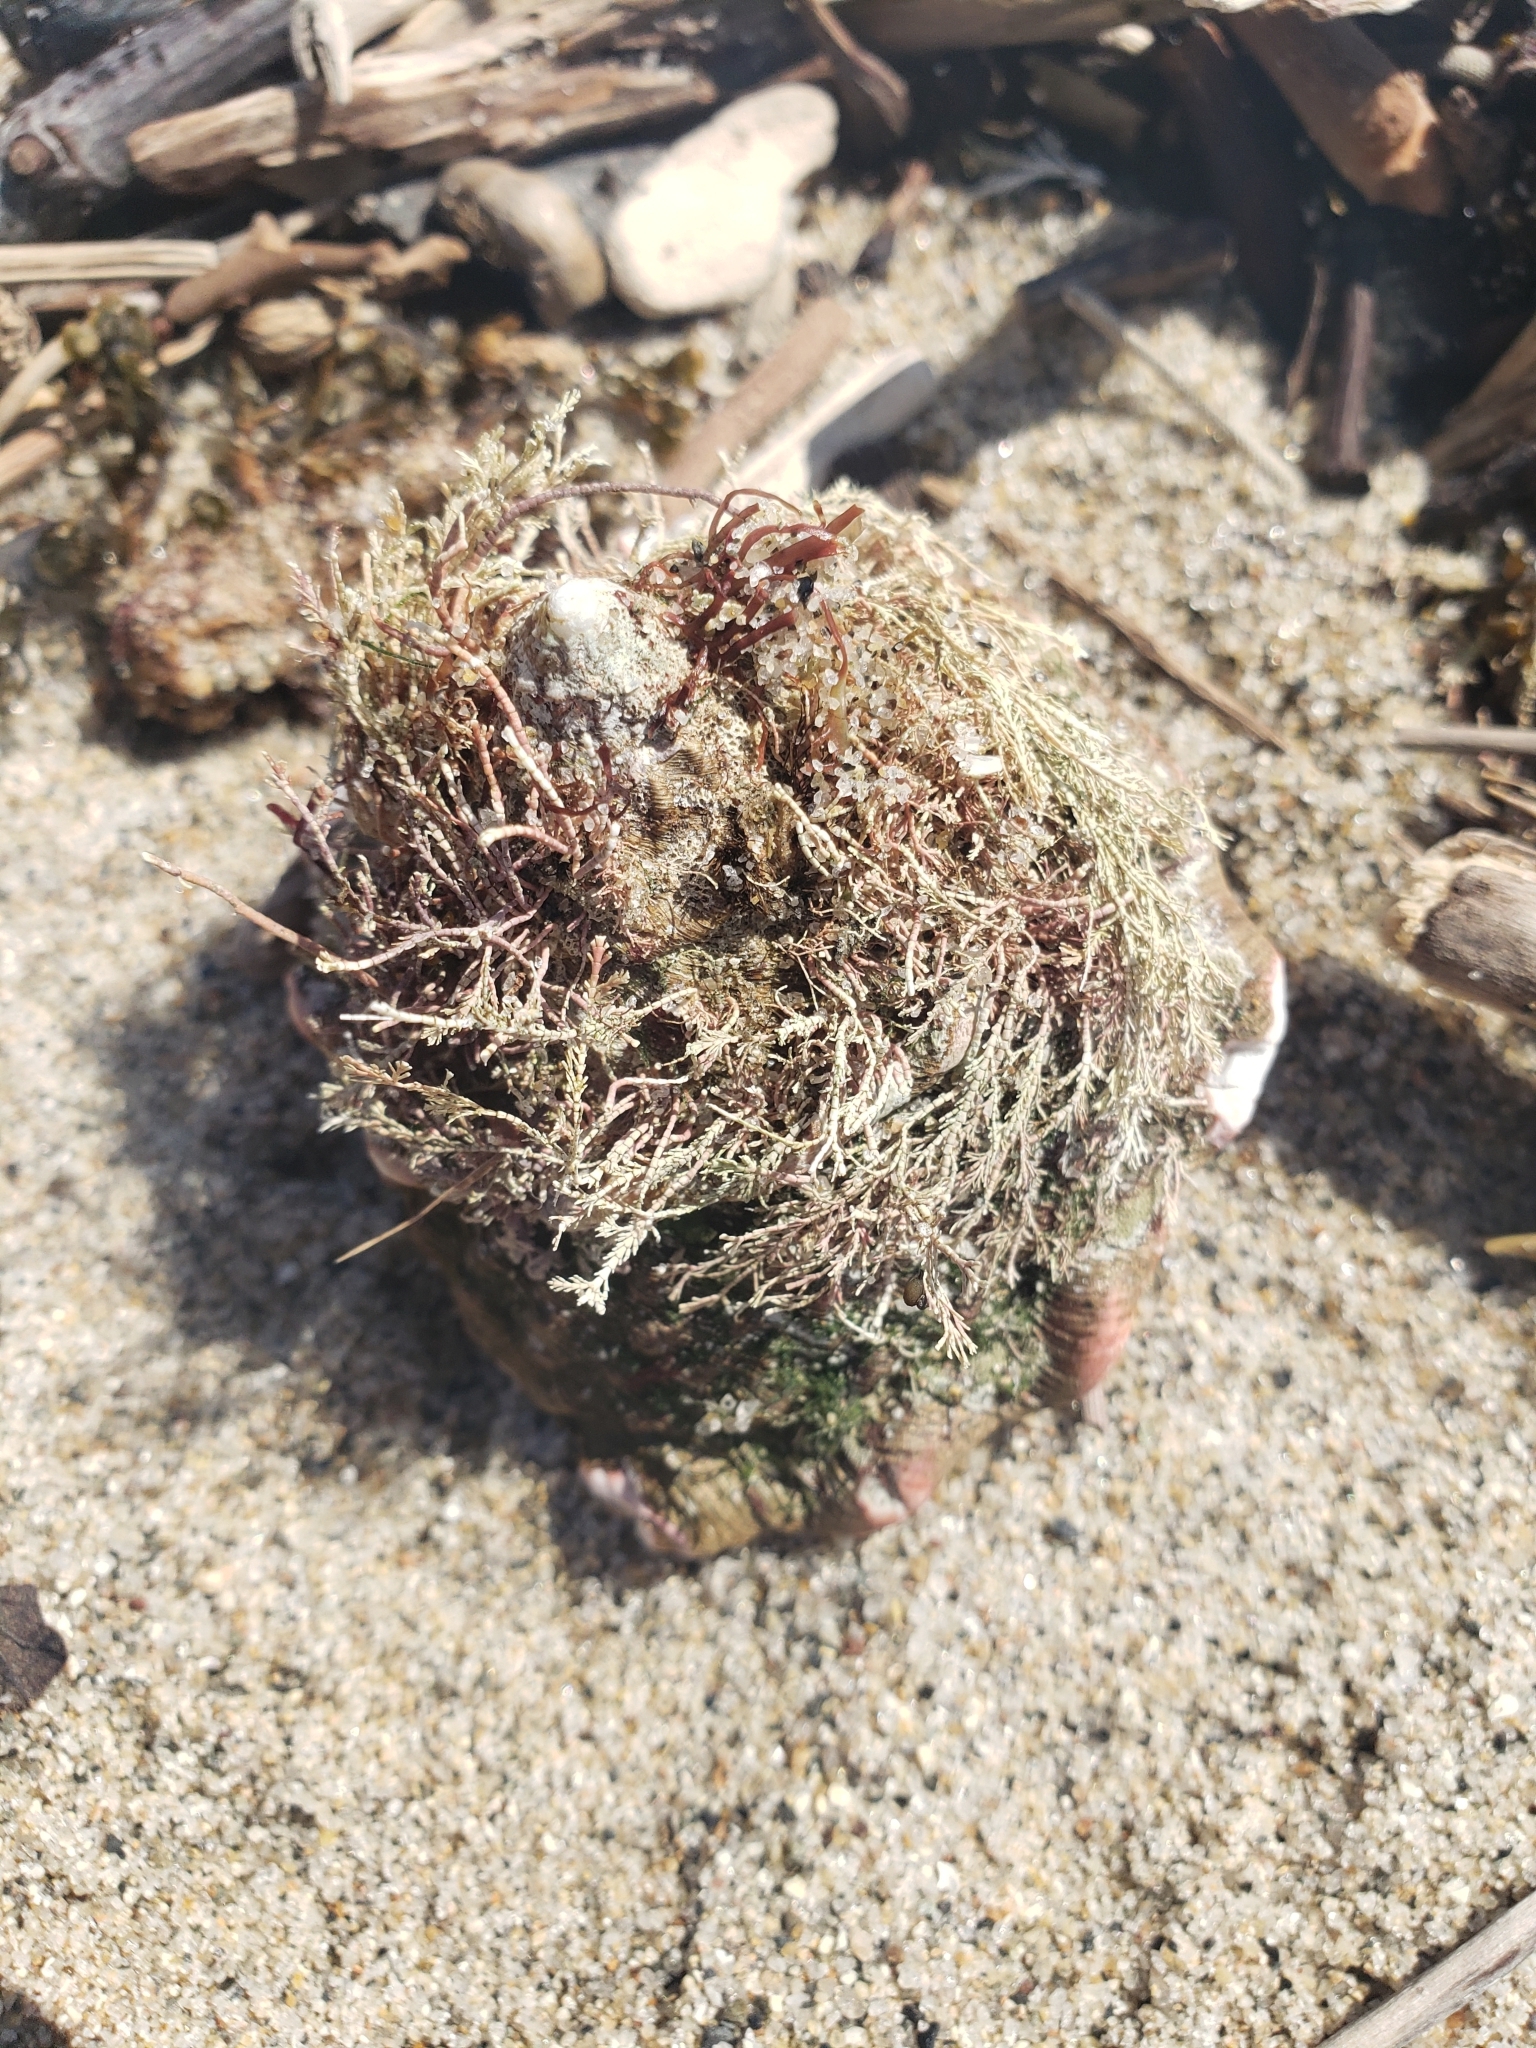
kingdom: Animalia
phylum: Mollusca
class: Gastropoda
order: Trochida
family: Turbinidae
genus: Megastraea
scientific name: Megastraea undosa
